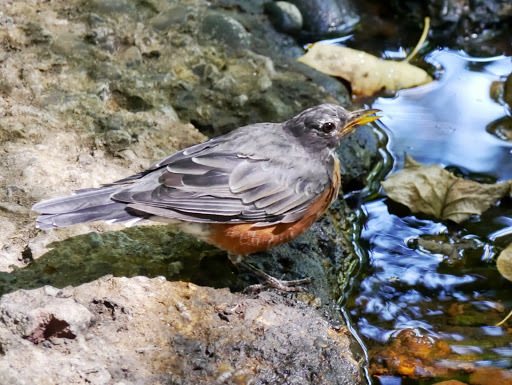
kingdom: Animalia
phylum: Chordata
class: Aves
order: Passeriformes
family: Turdidae
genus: Turdus
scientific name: Turdus migratorius
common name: American robin
